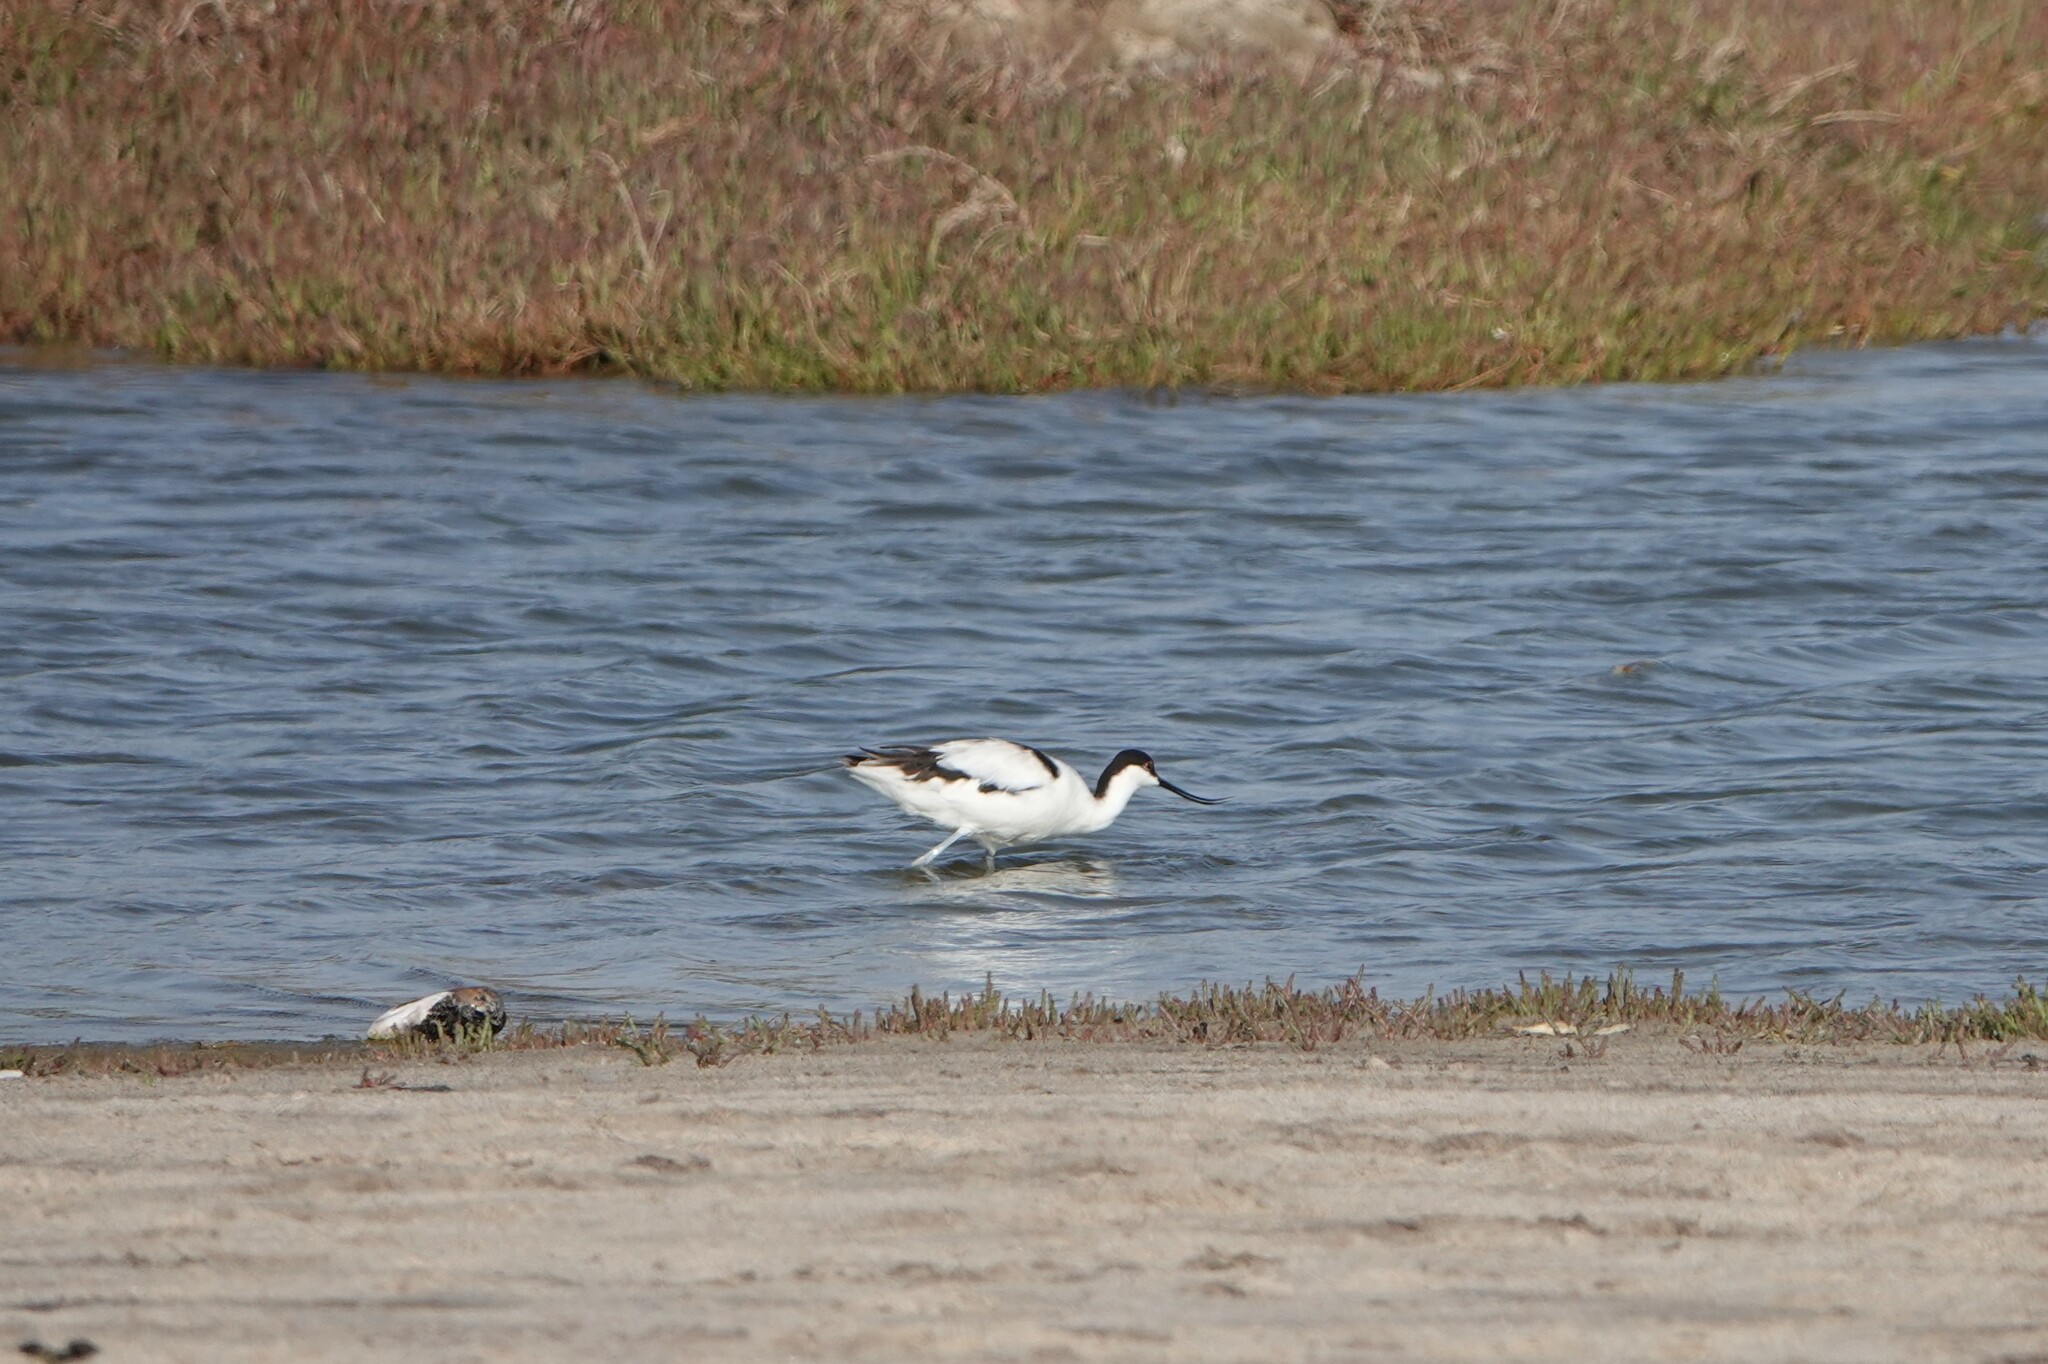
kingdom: Animalia
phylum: Chordata
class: Aves
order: Charadriiformes
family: Recurvirostridae
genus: Recurvirostra
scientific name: Recurvirostra avosetta
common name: Pied avocet
